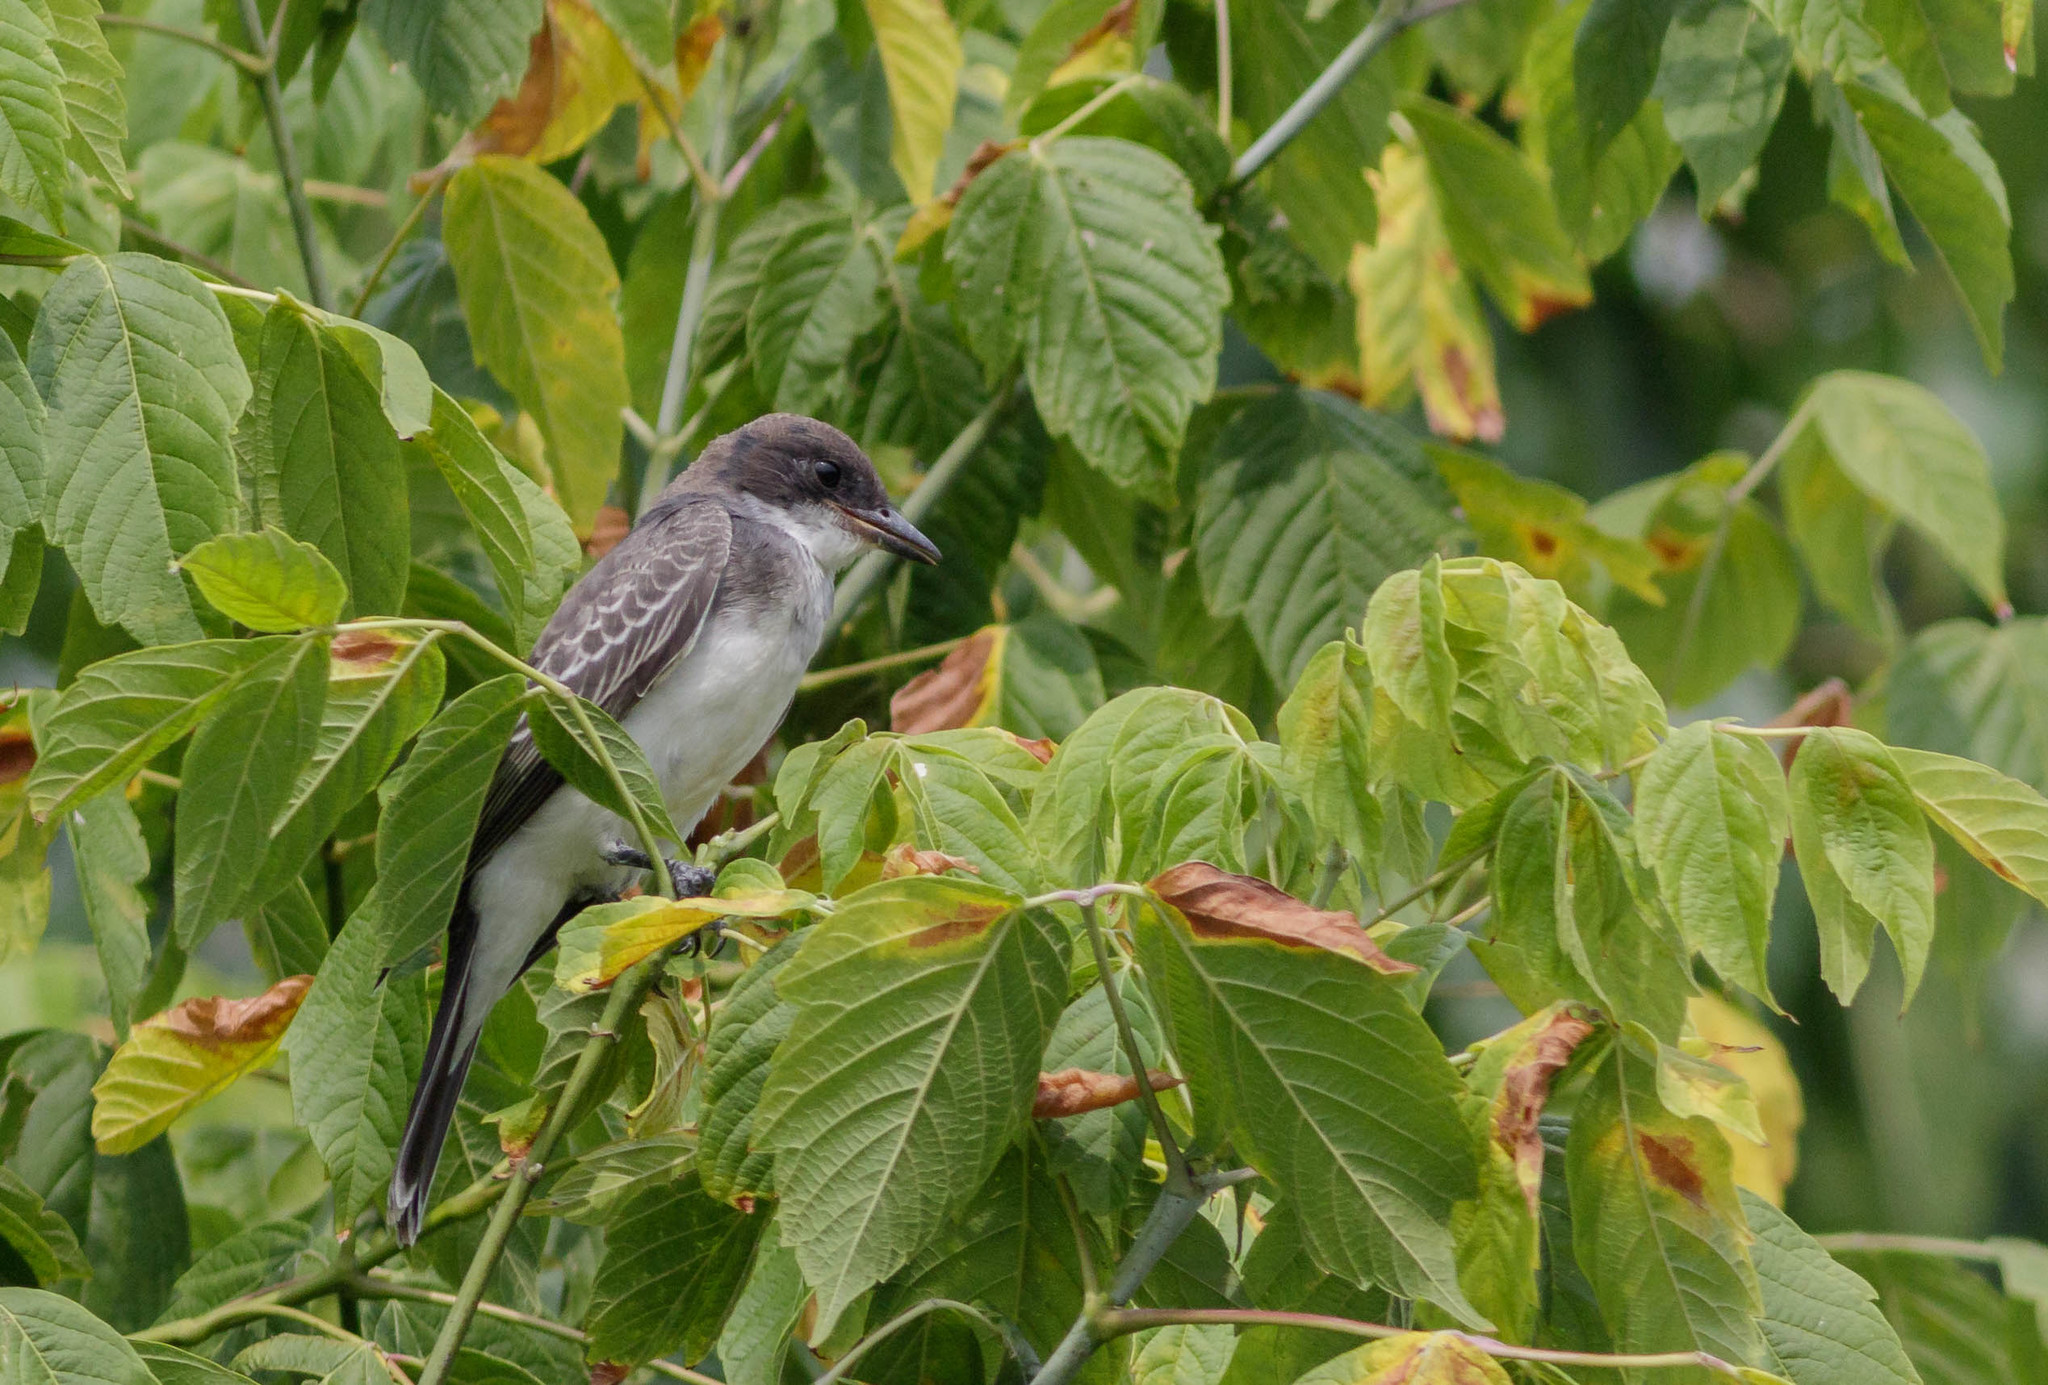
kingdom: Animalia
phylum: Chordata
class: Aves
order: Passeriformes
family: Tyrannidae
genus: Tyrannus
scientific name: Tyrannus tyrannus
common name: Eastern kingbird
